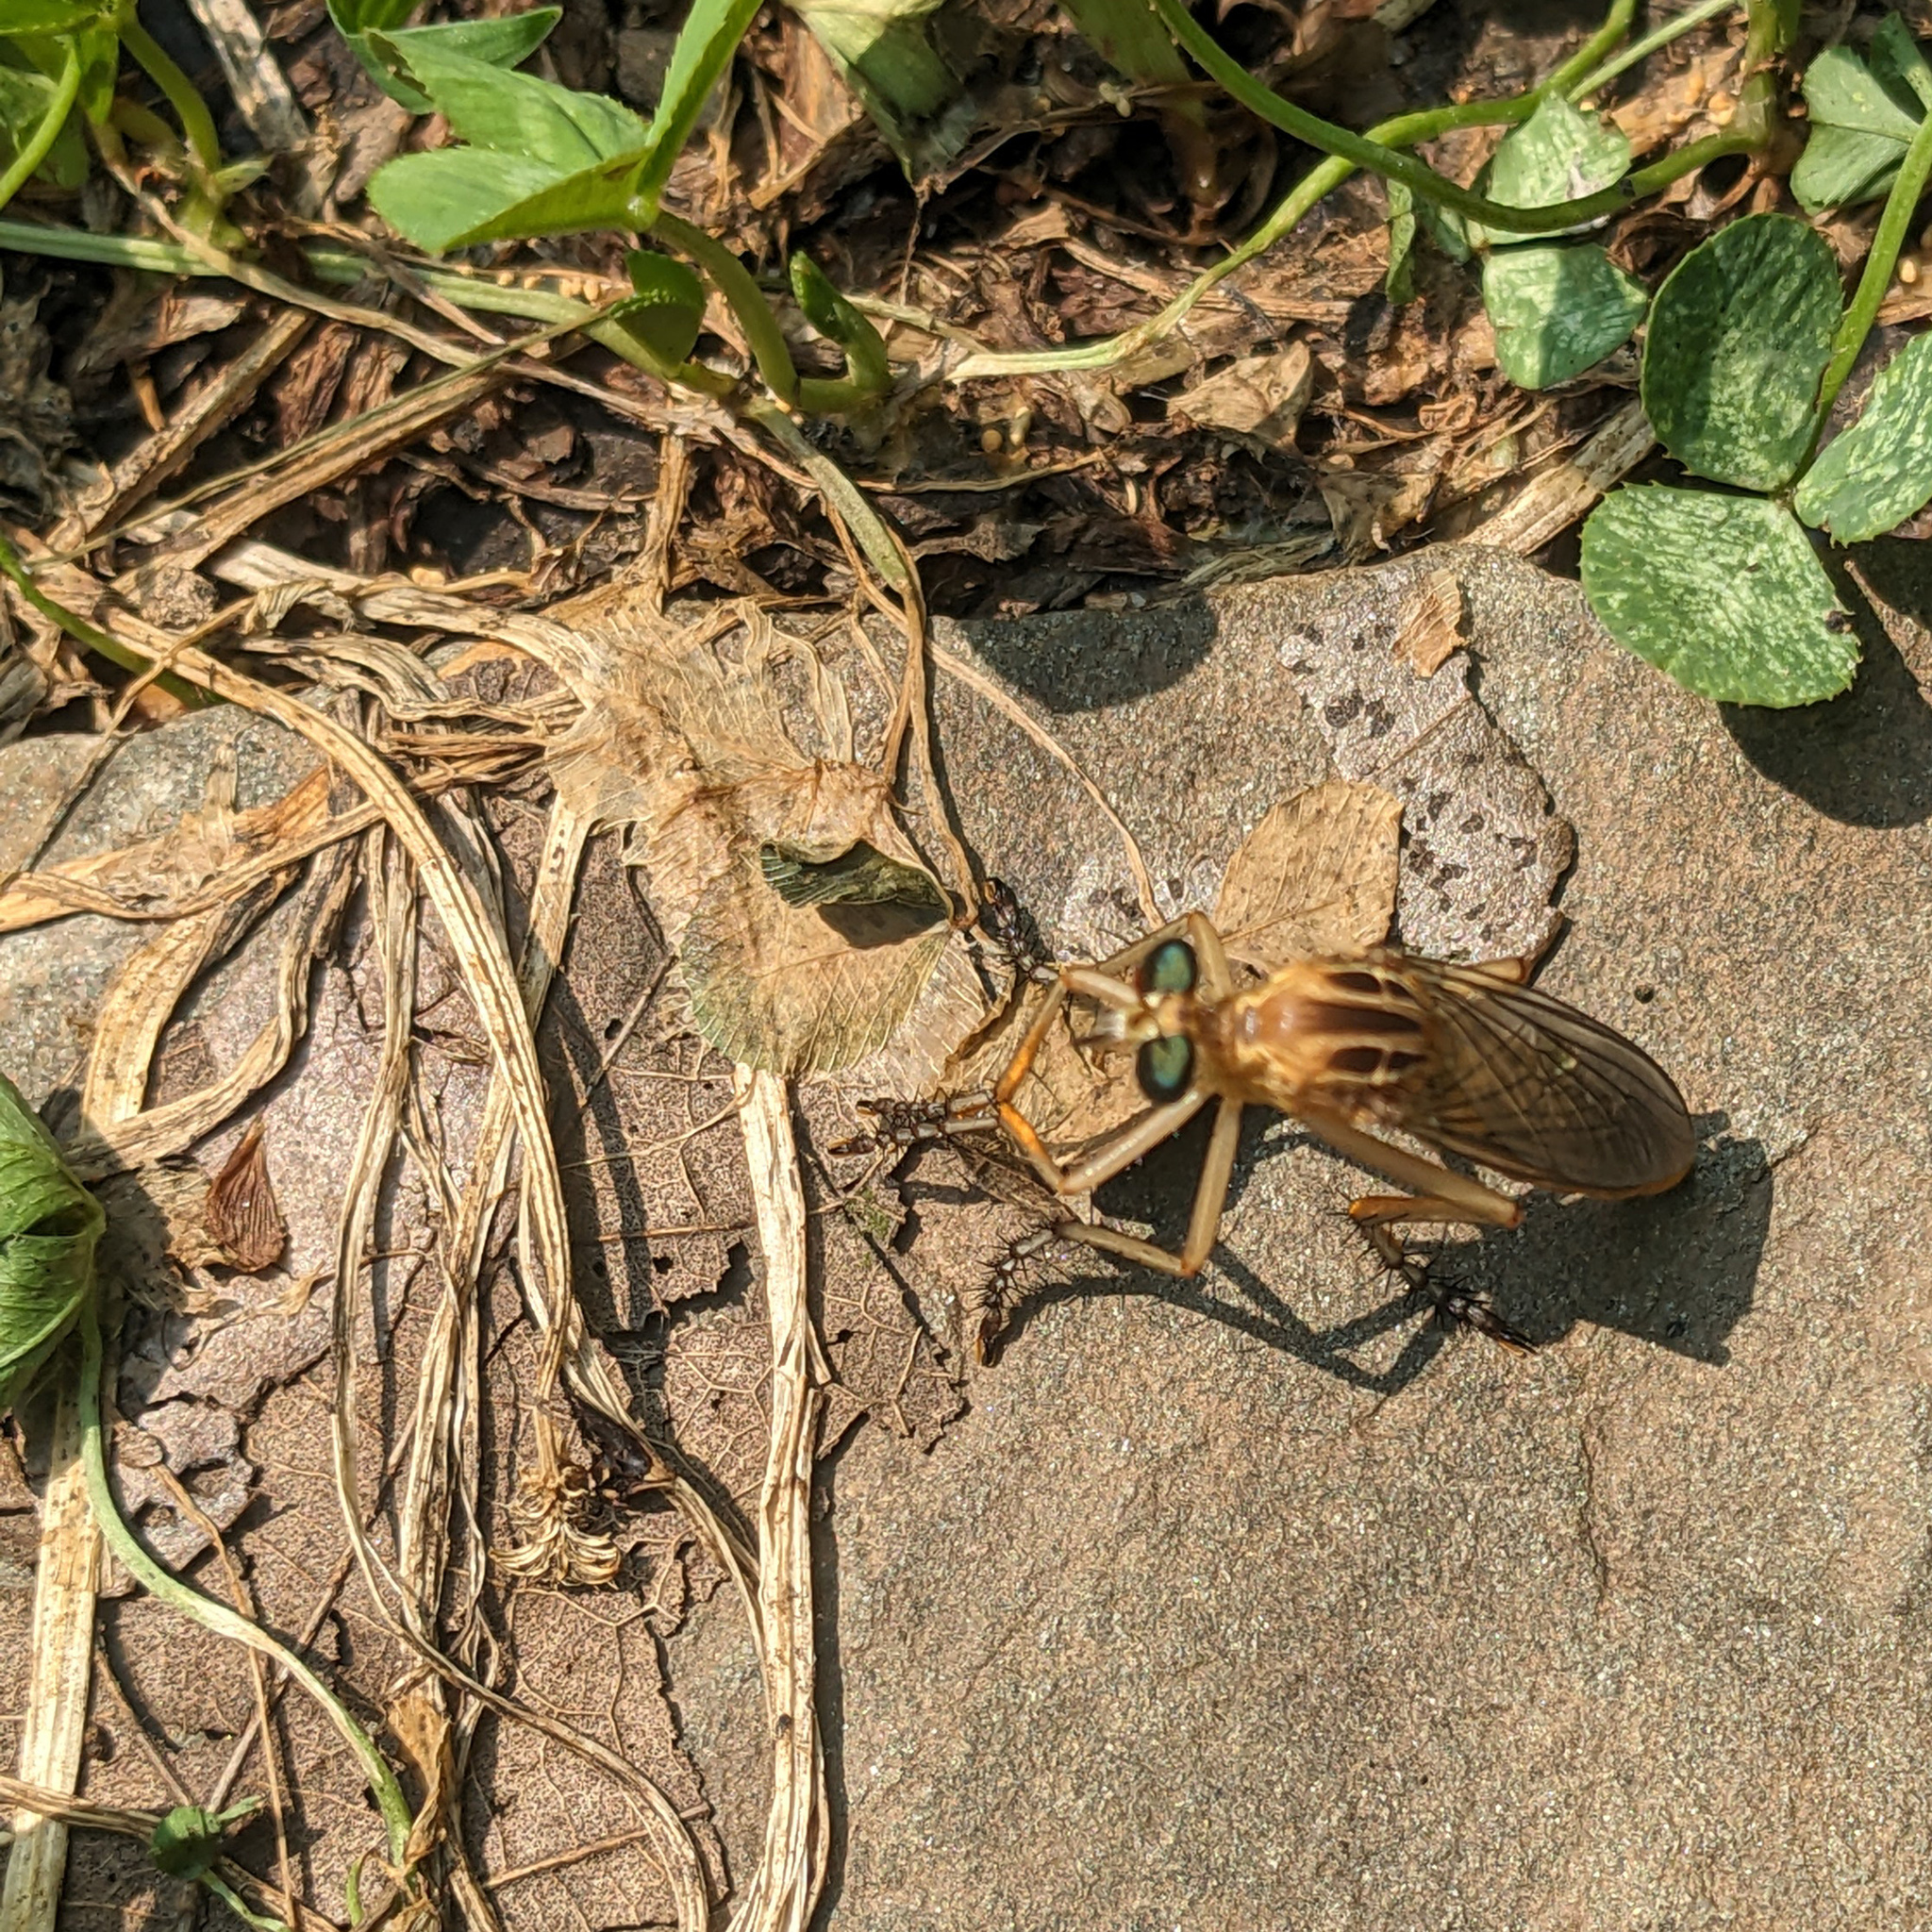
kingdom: Animalia
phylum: Arthropoda
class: Insecta
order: Diptera
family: Asilidae
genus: Diogmites
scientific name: Diogmites neoternatus
